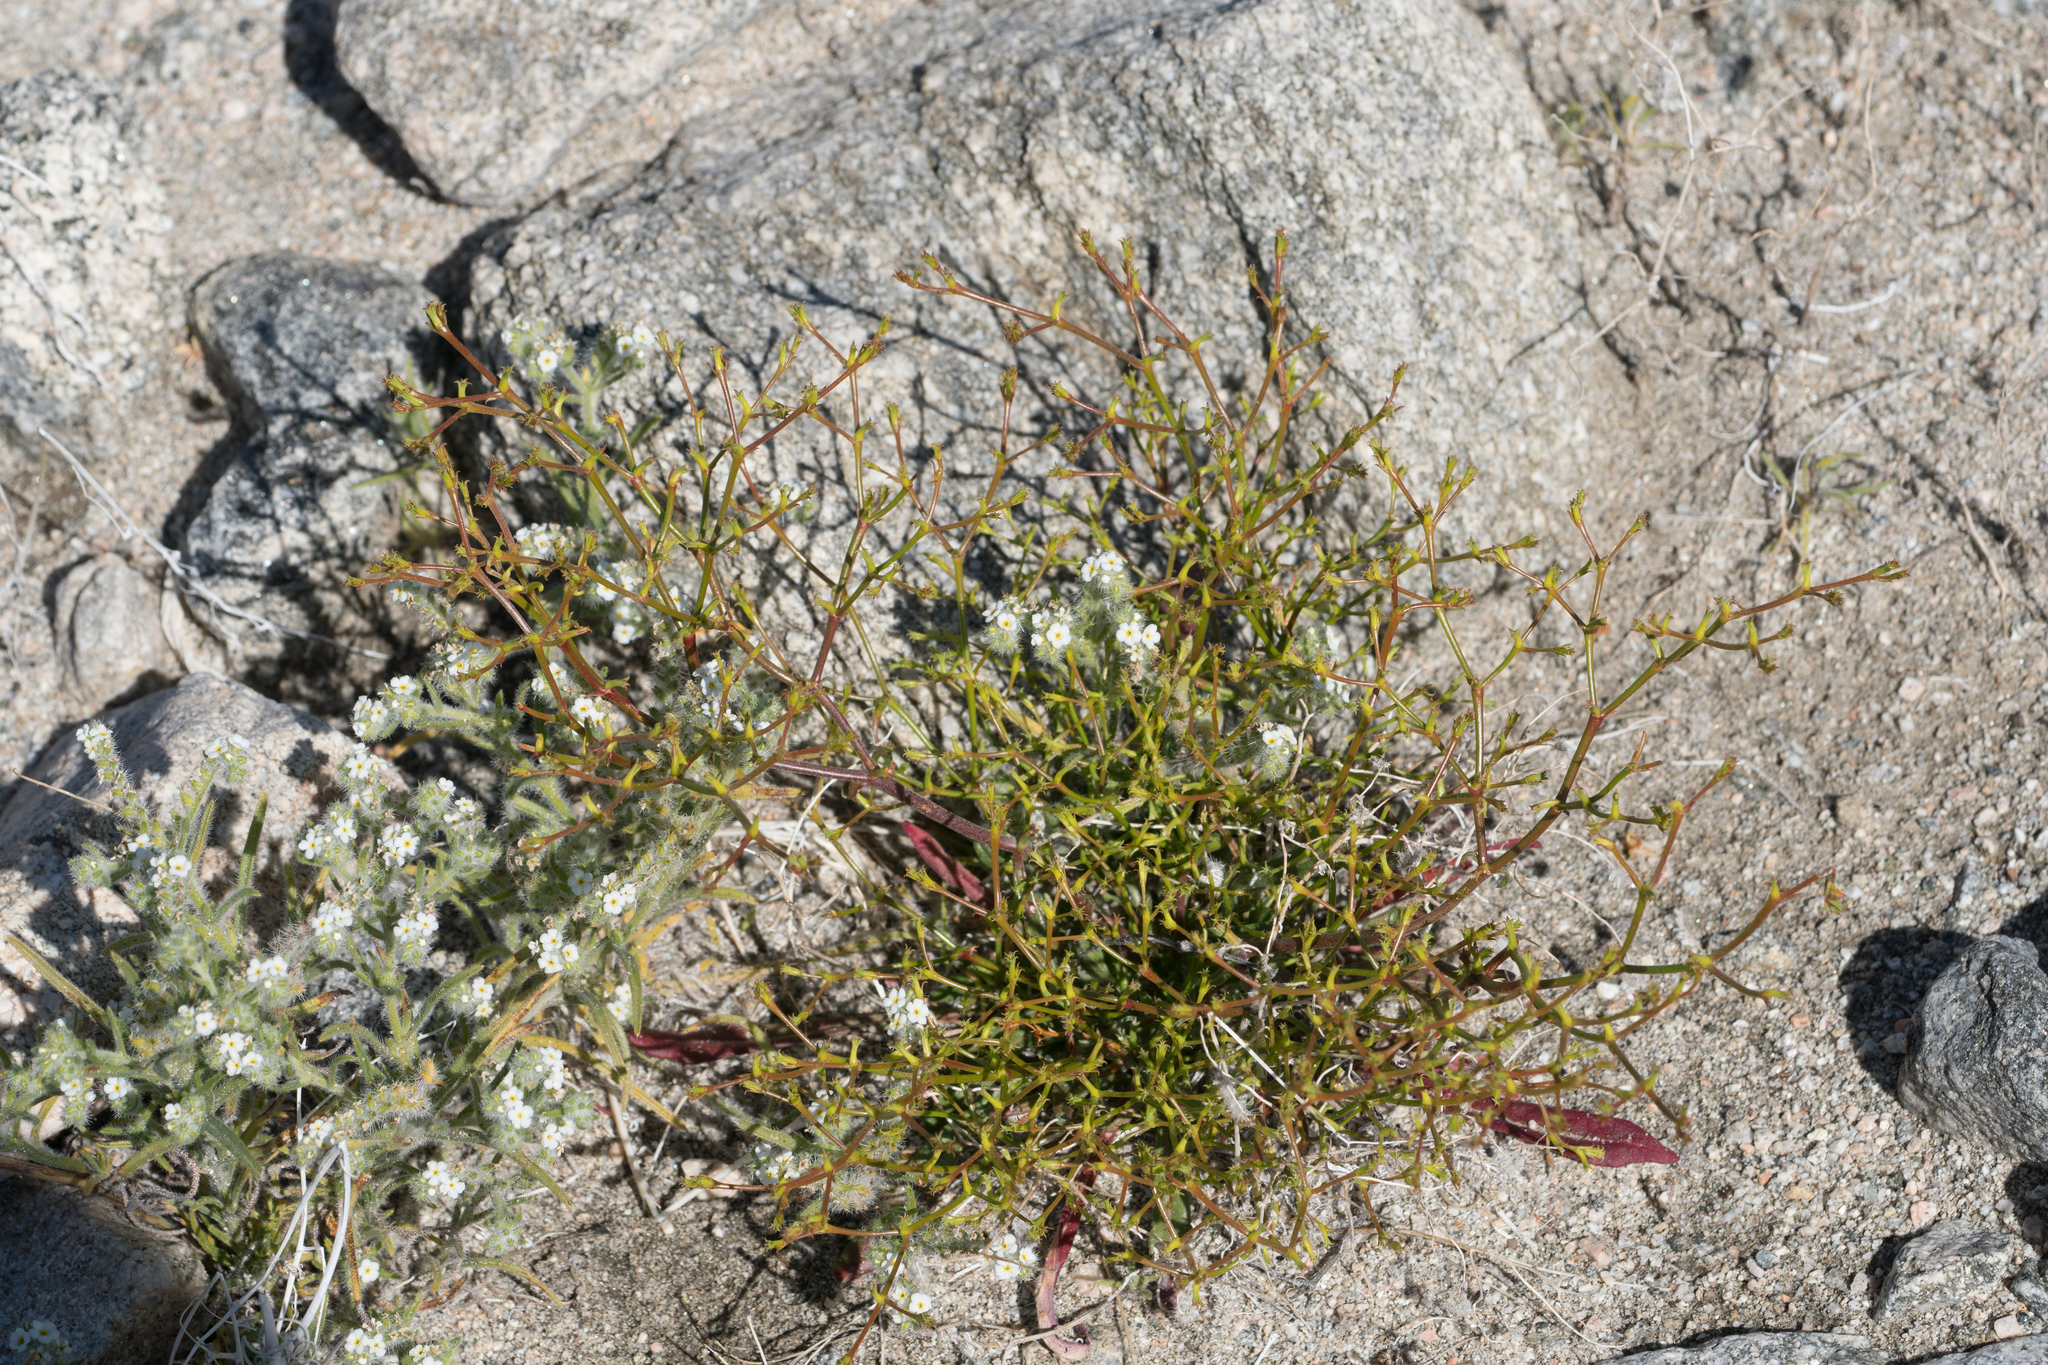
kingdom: Plantae
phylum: Tracheophyta
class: Magnoliopsida
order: Caryophyllales
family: Polygonaceae
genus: Chorizanthe
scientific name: Chorizanthe brevicornu
